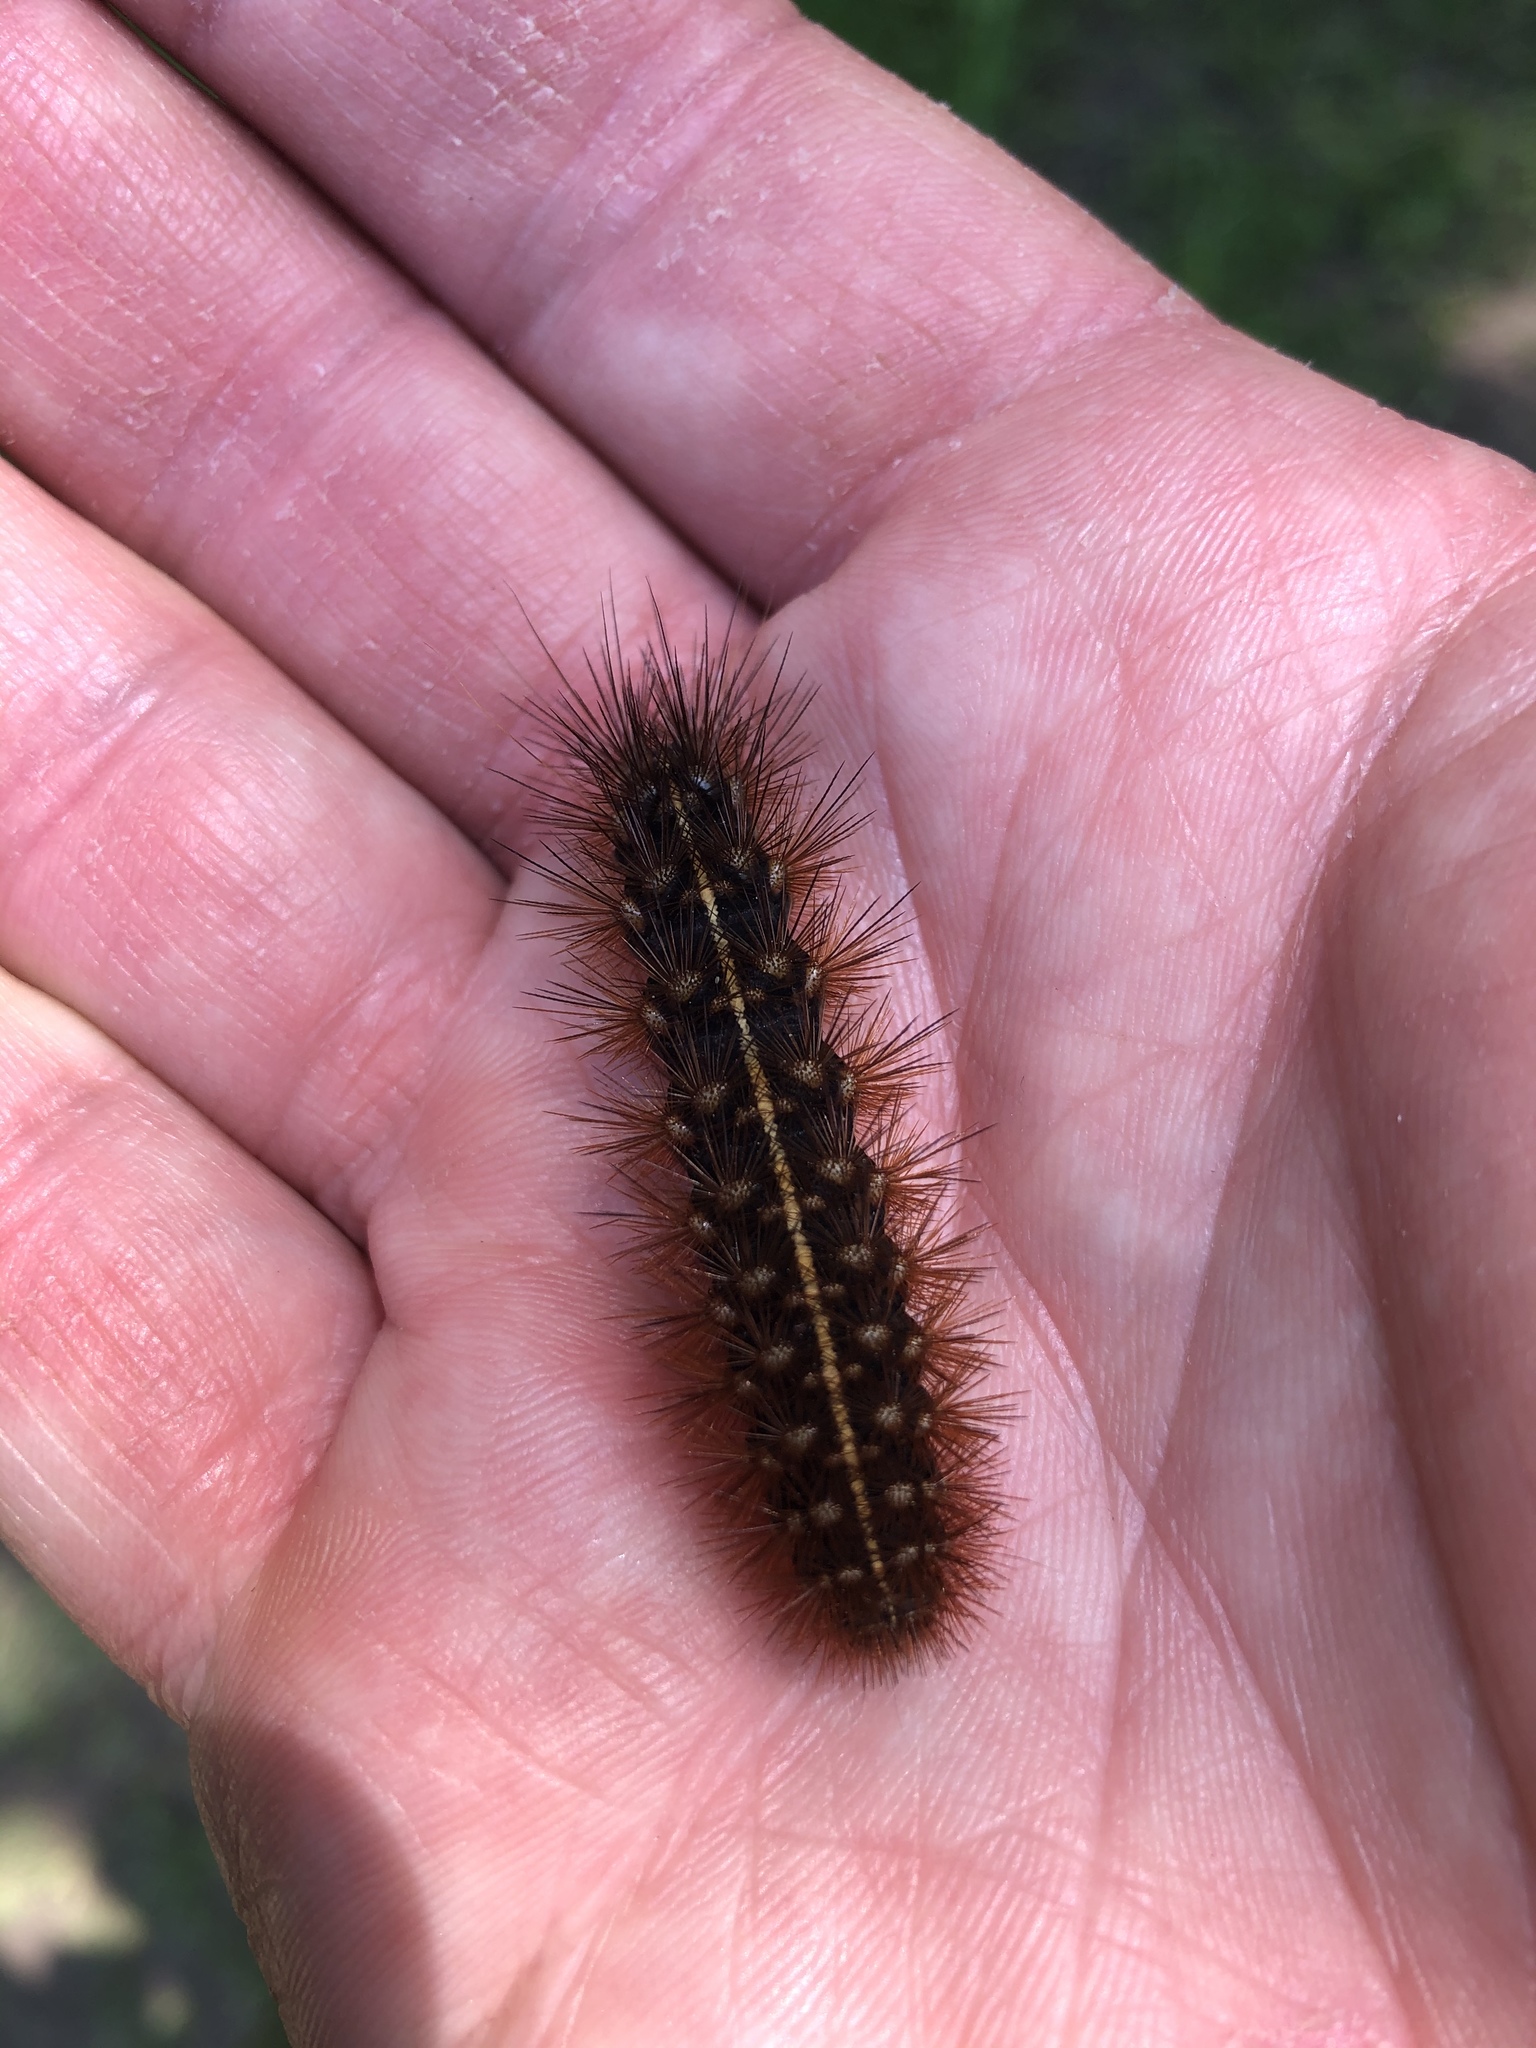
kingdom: Animalia
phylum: Arthropoda
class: Insecta
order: Lepidoptera
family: Erebidae
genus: Grammia
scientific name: Grammia virgo
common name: Virgin tiger moth
